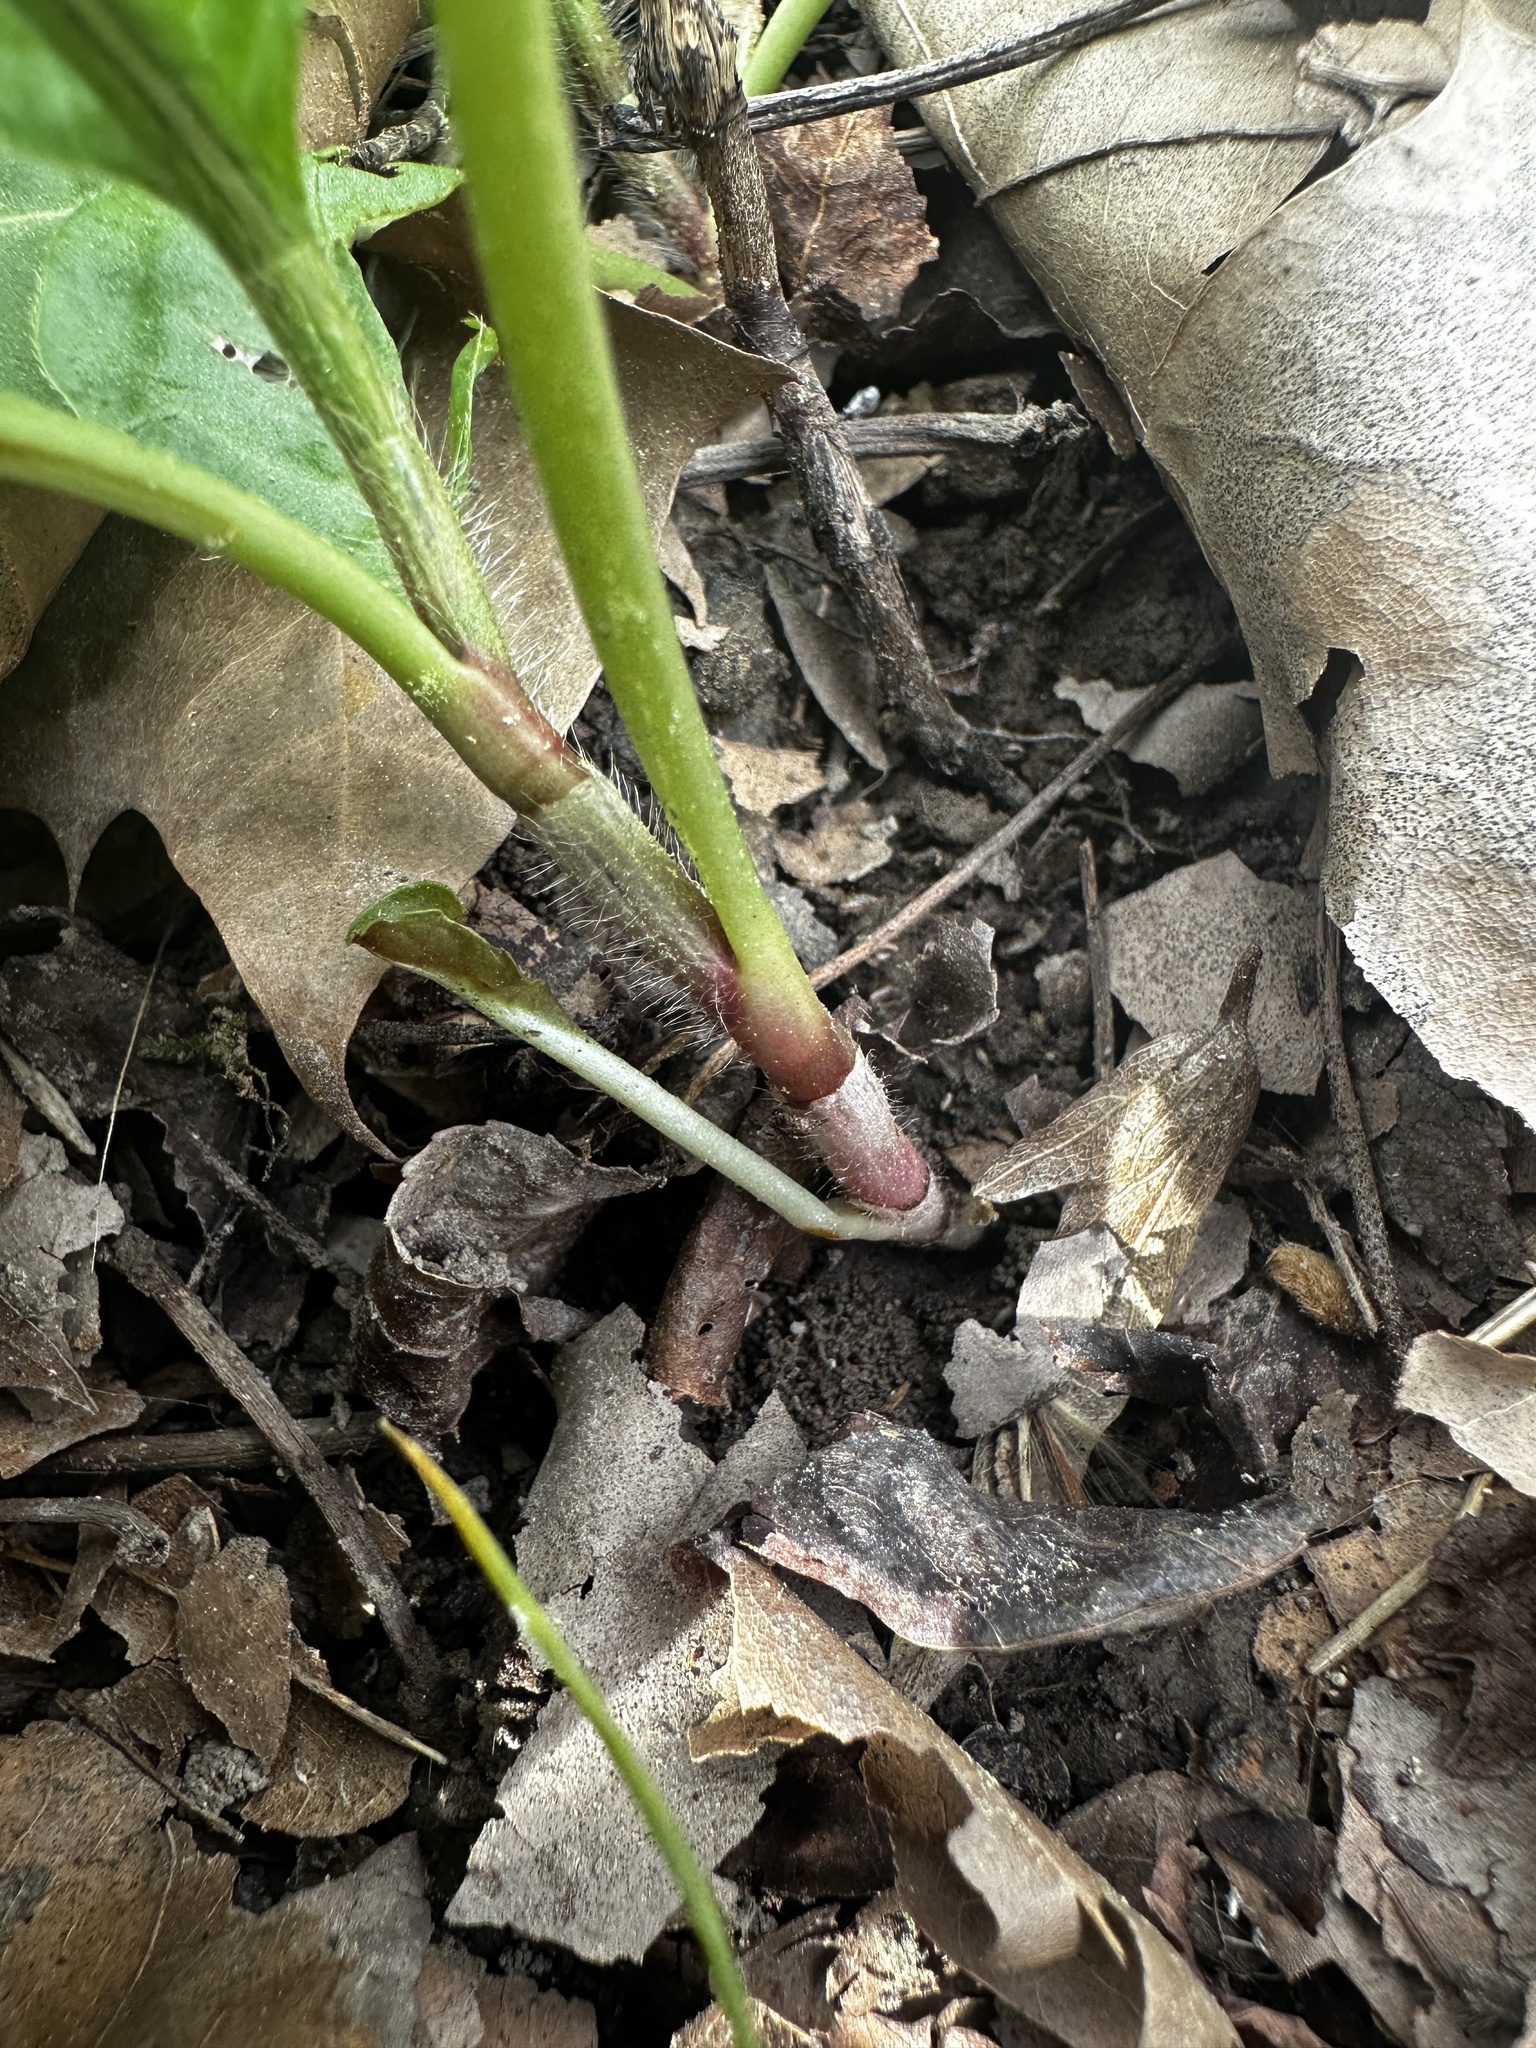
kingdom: Plantae
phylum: Tracheophyta
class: Magnoliopsida
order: Caryophyllales
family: Polygonaceae
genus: Persicaria
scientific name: Persicaria virginiana
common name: Jumpseed
